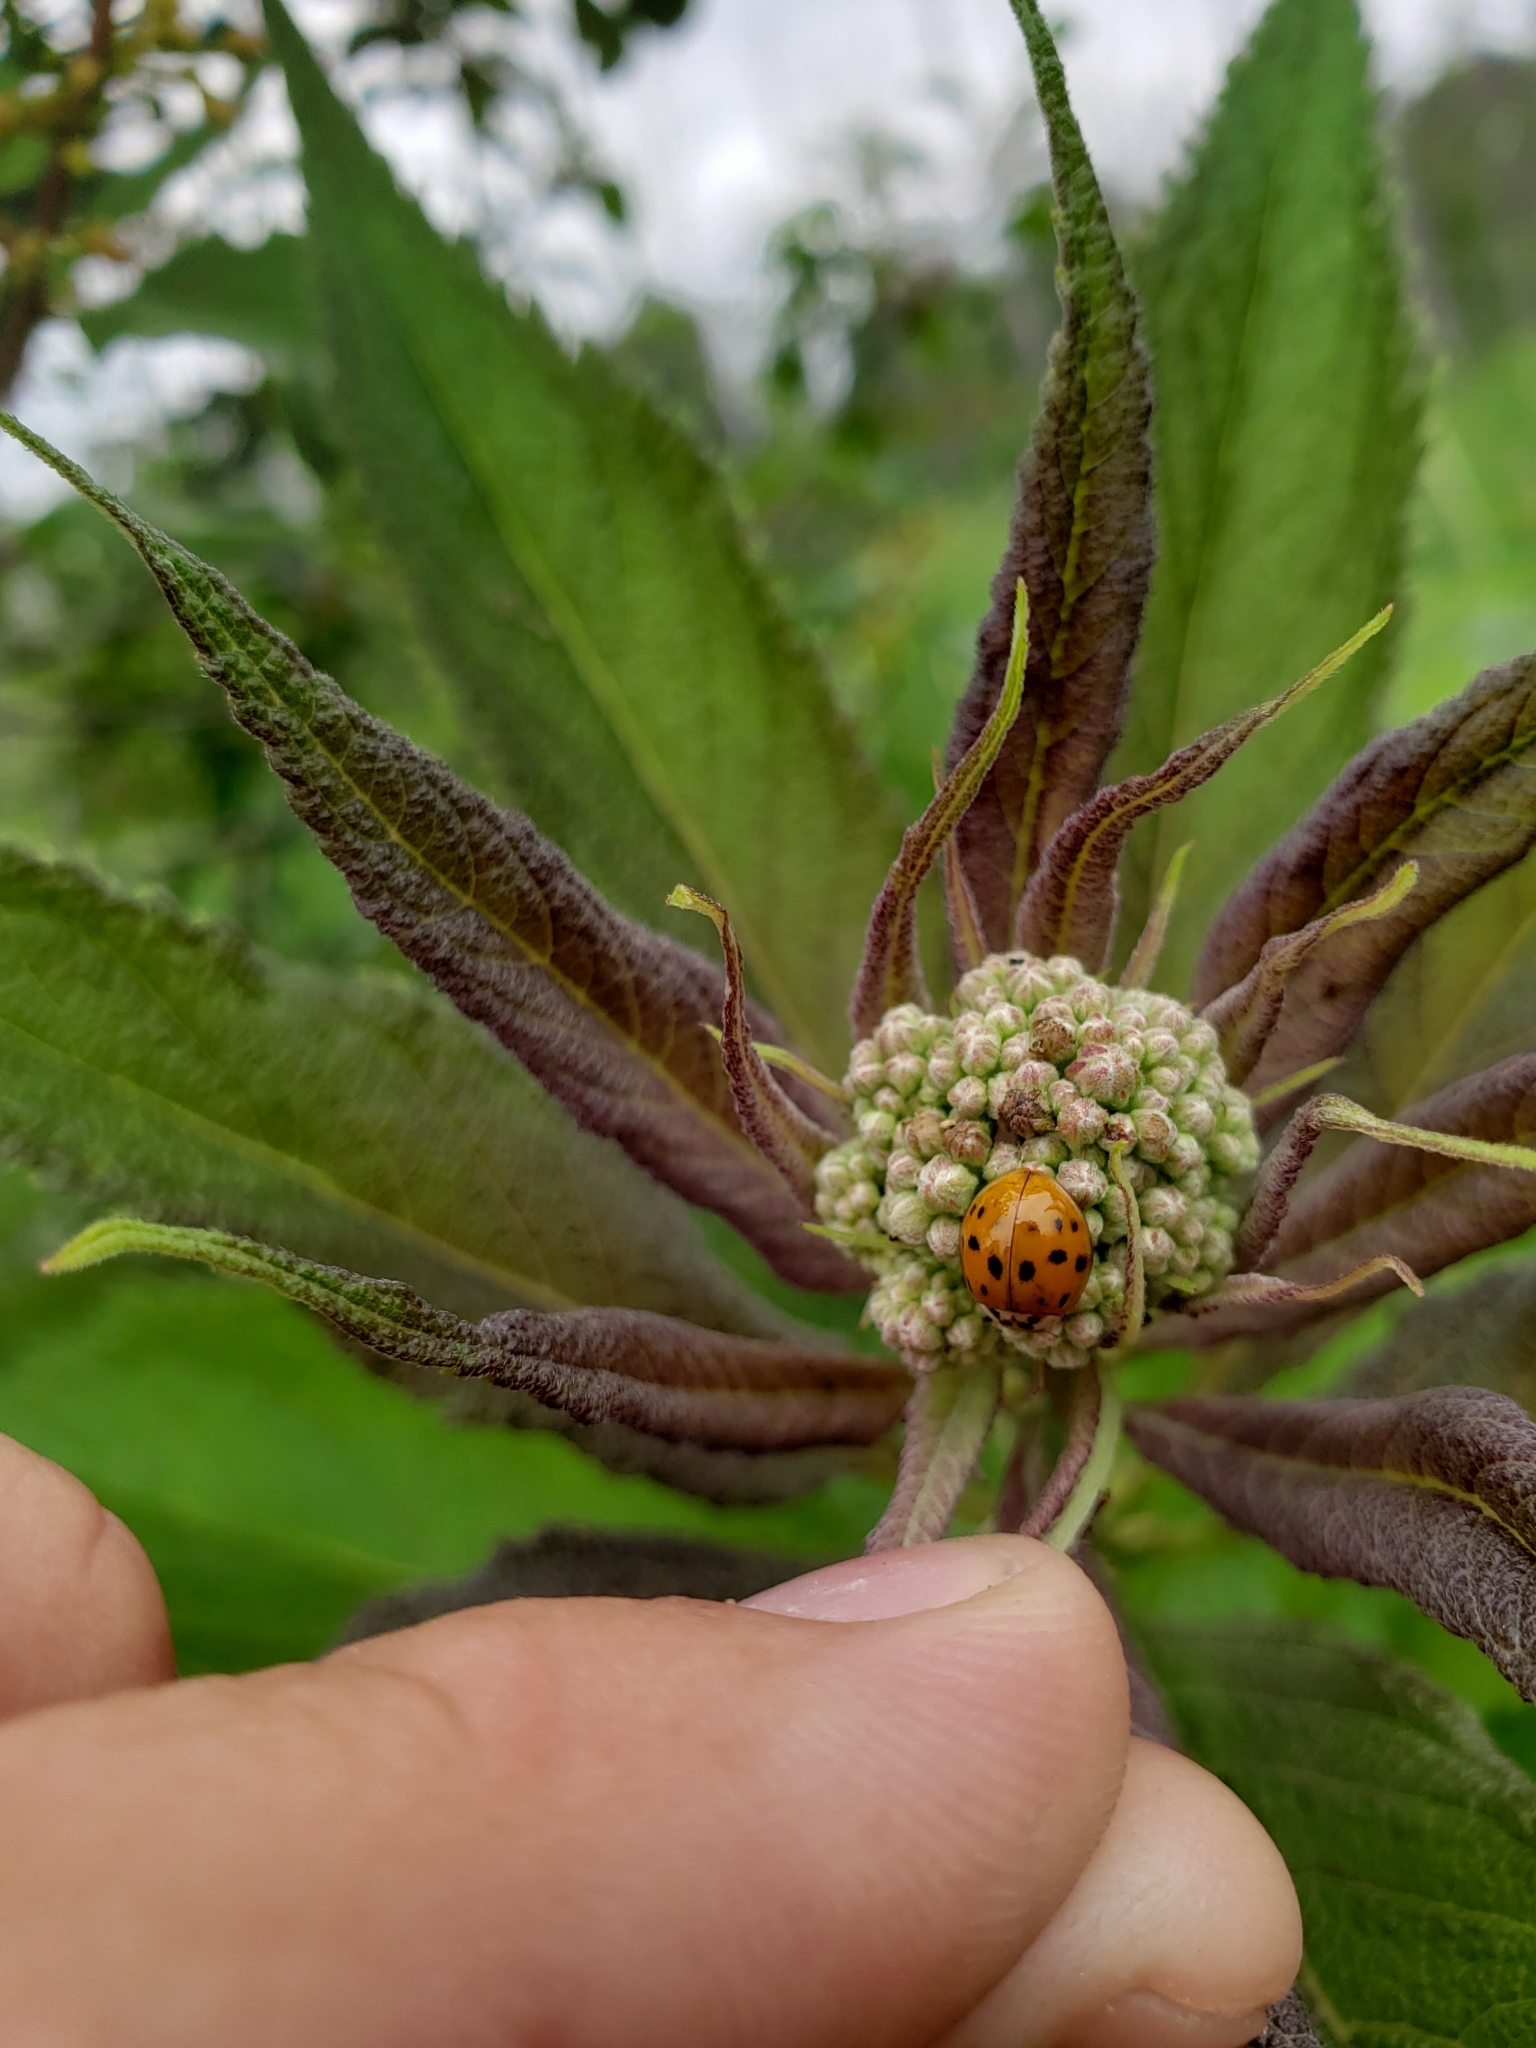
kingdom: Animalia
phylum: Arthropoda
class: Insecta
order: Coleoptera
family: Coccinellidae
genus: Harmonia
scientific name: Harmonia axyridis
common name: Harlequin ladybird
